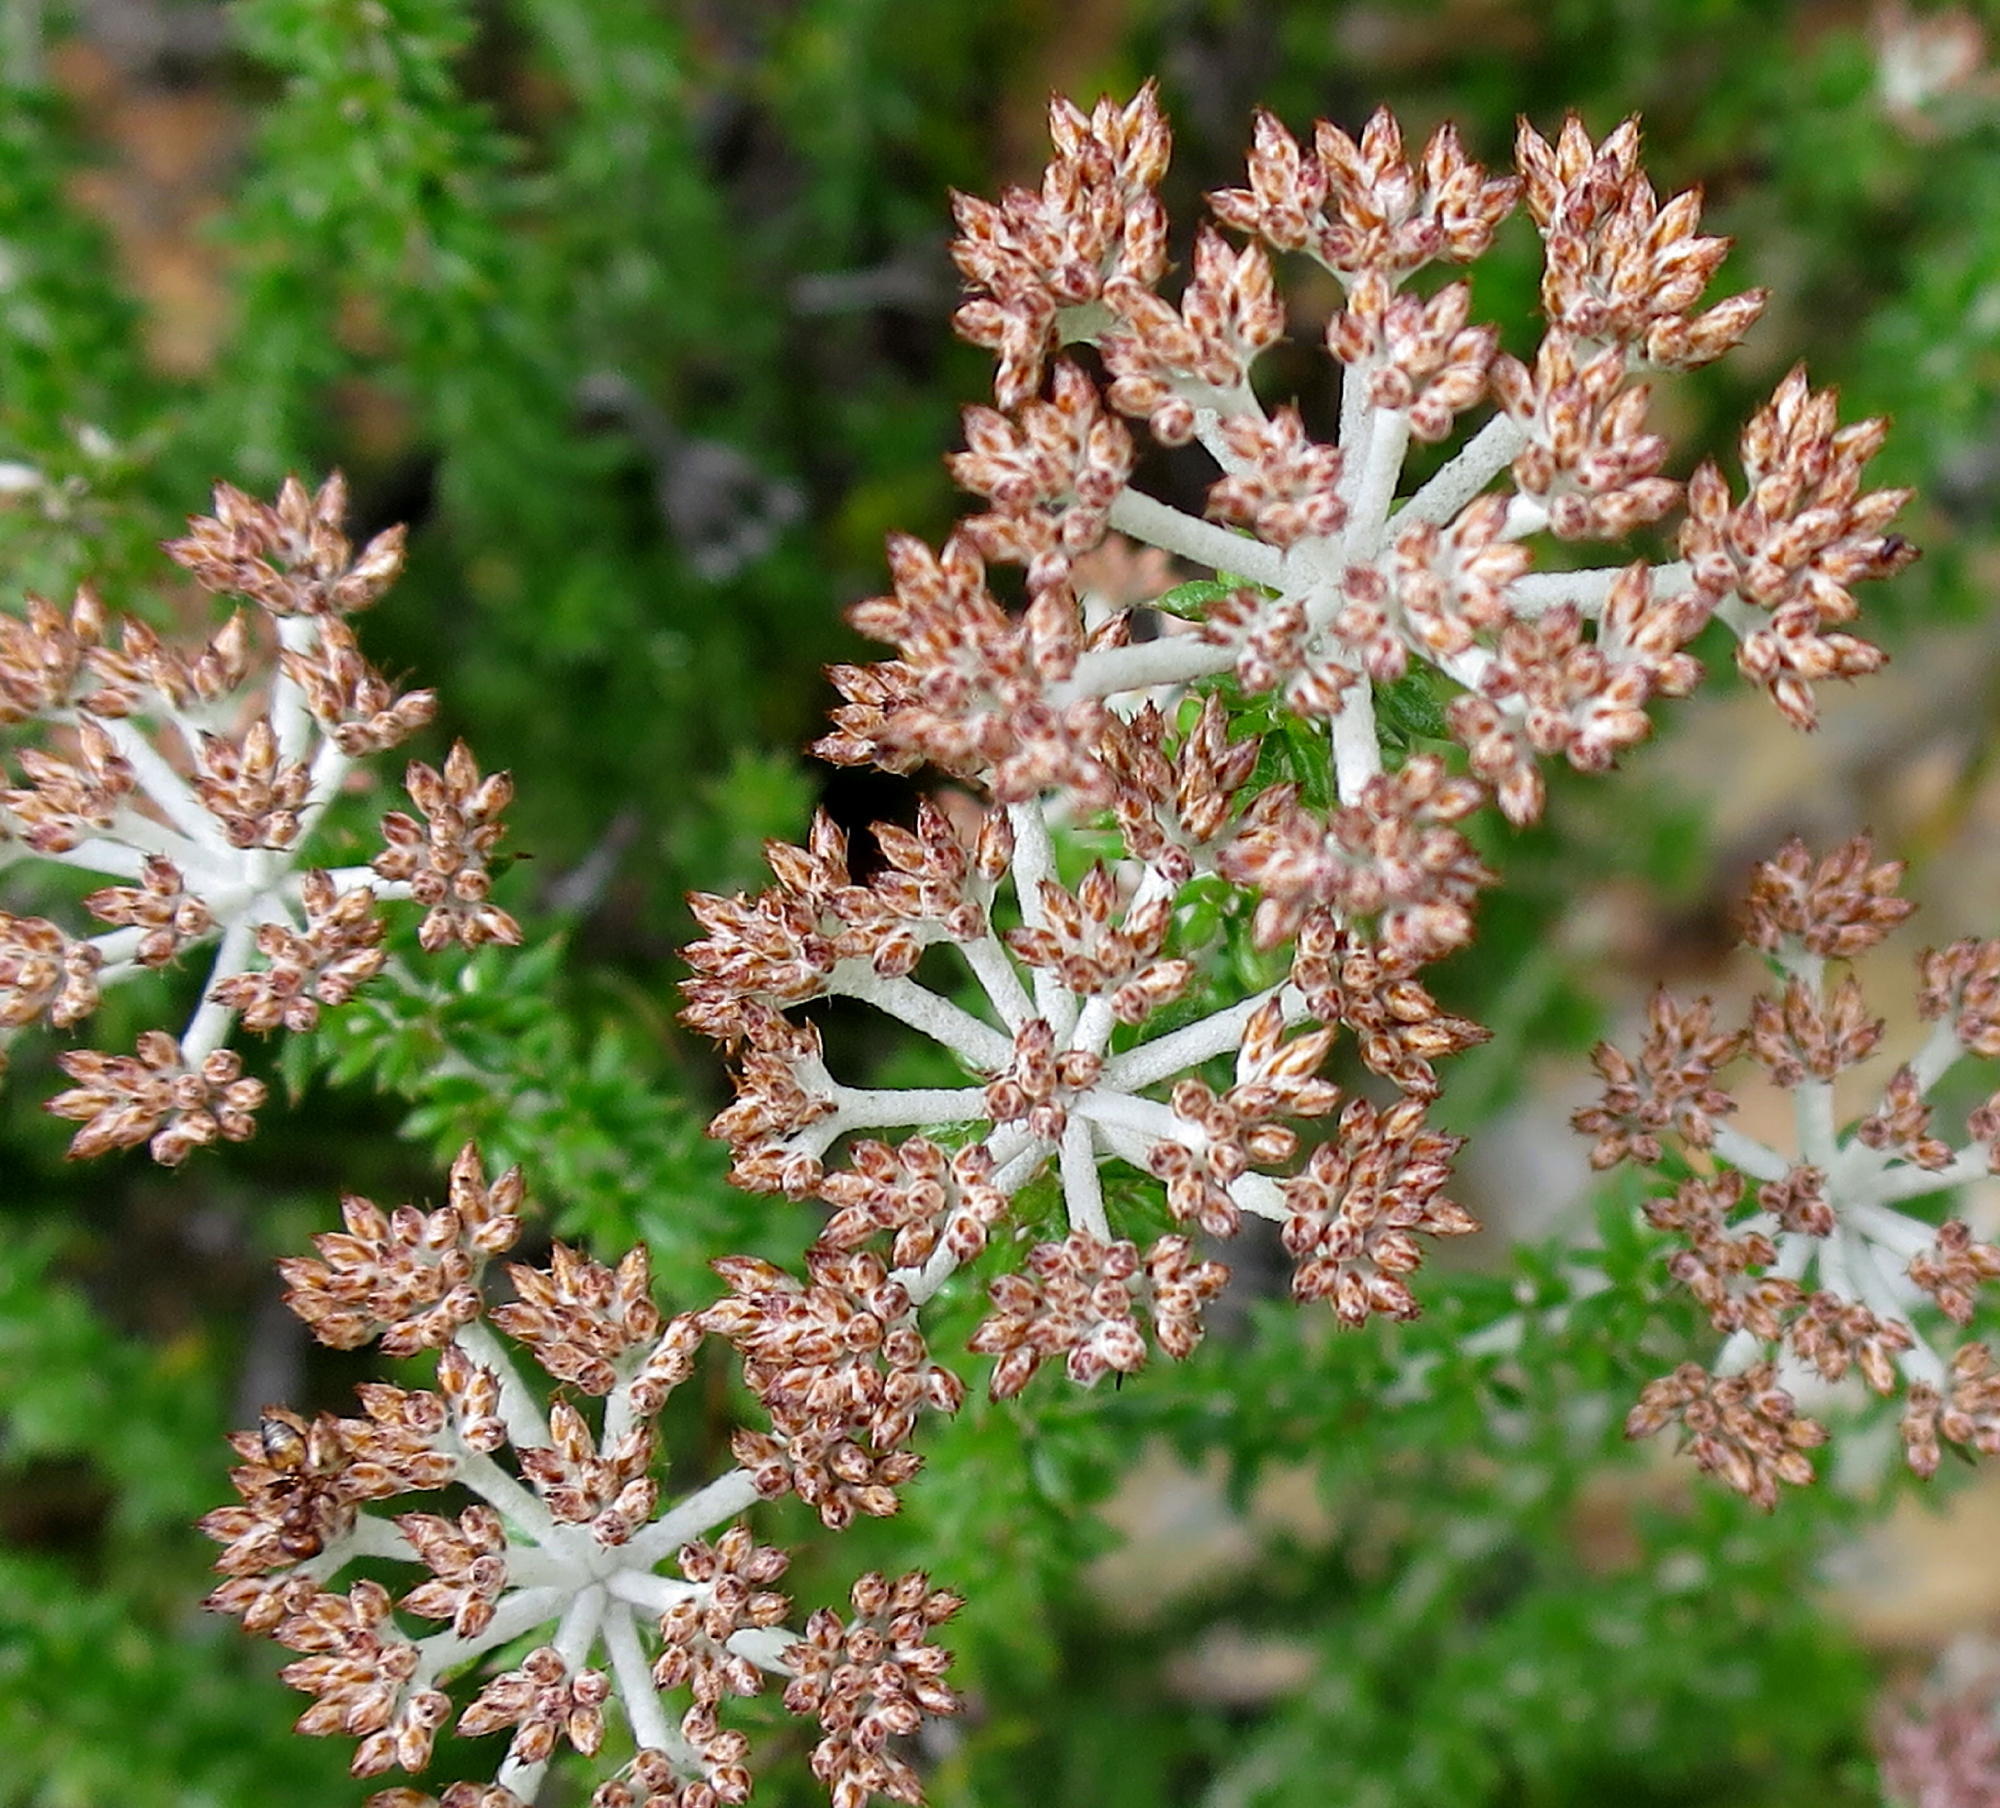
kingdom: Plantae
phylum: Tracheophyta
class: Magnoliopsida
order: Asterales
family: Asteraceae
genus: Metalasia
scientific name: Metalasia densa
